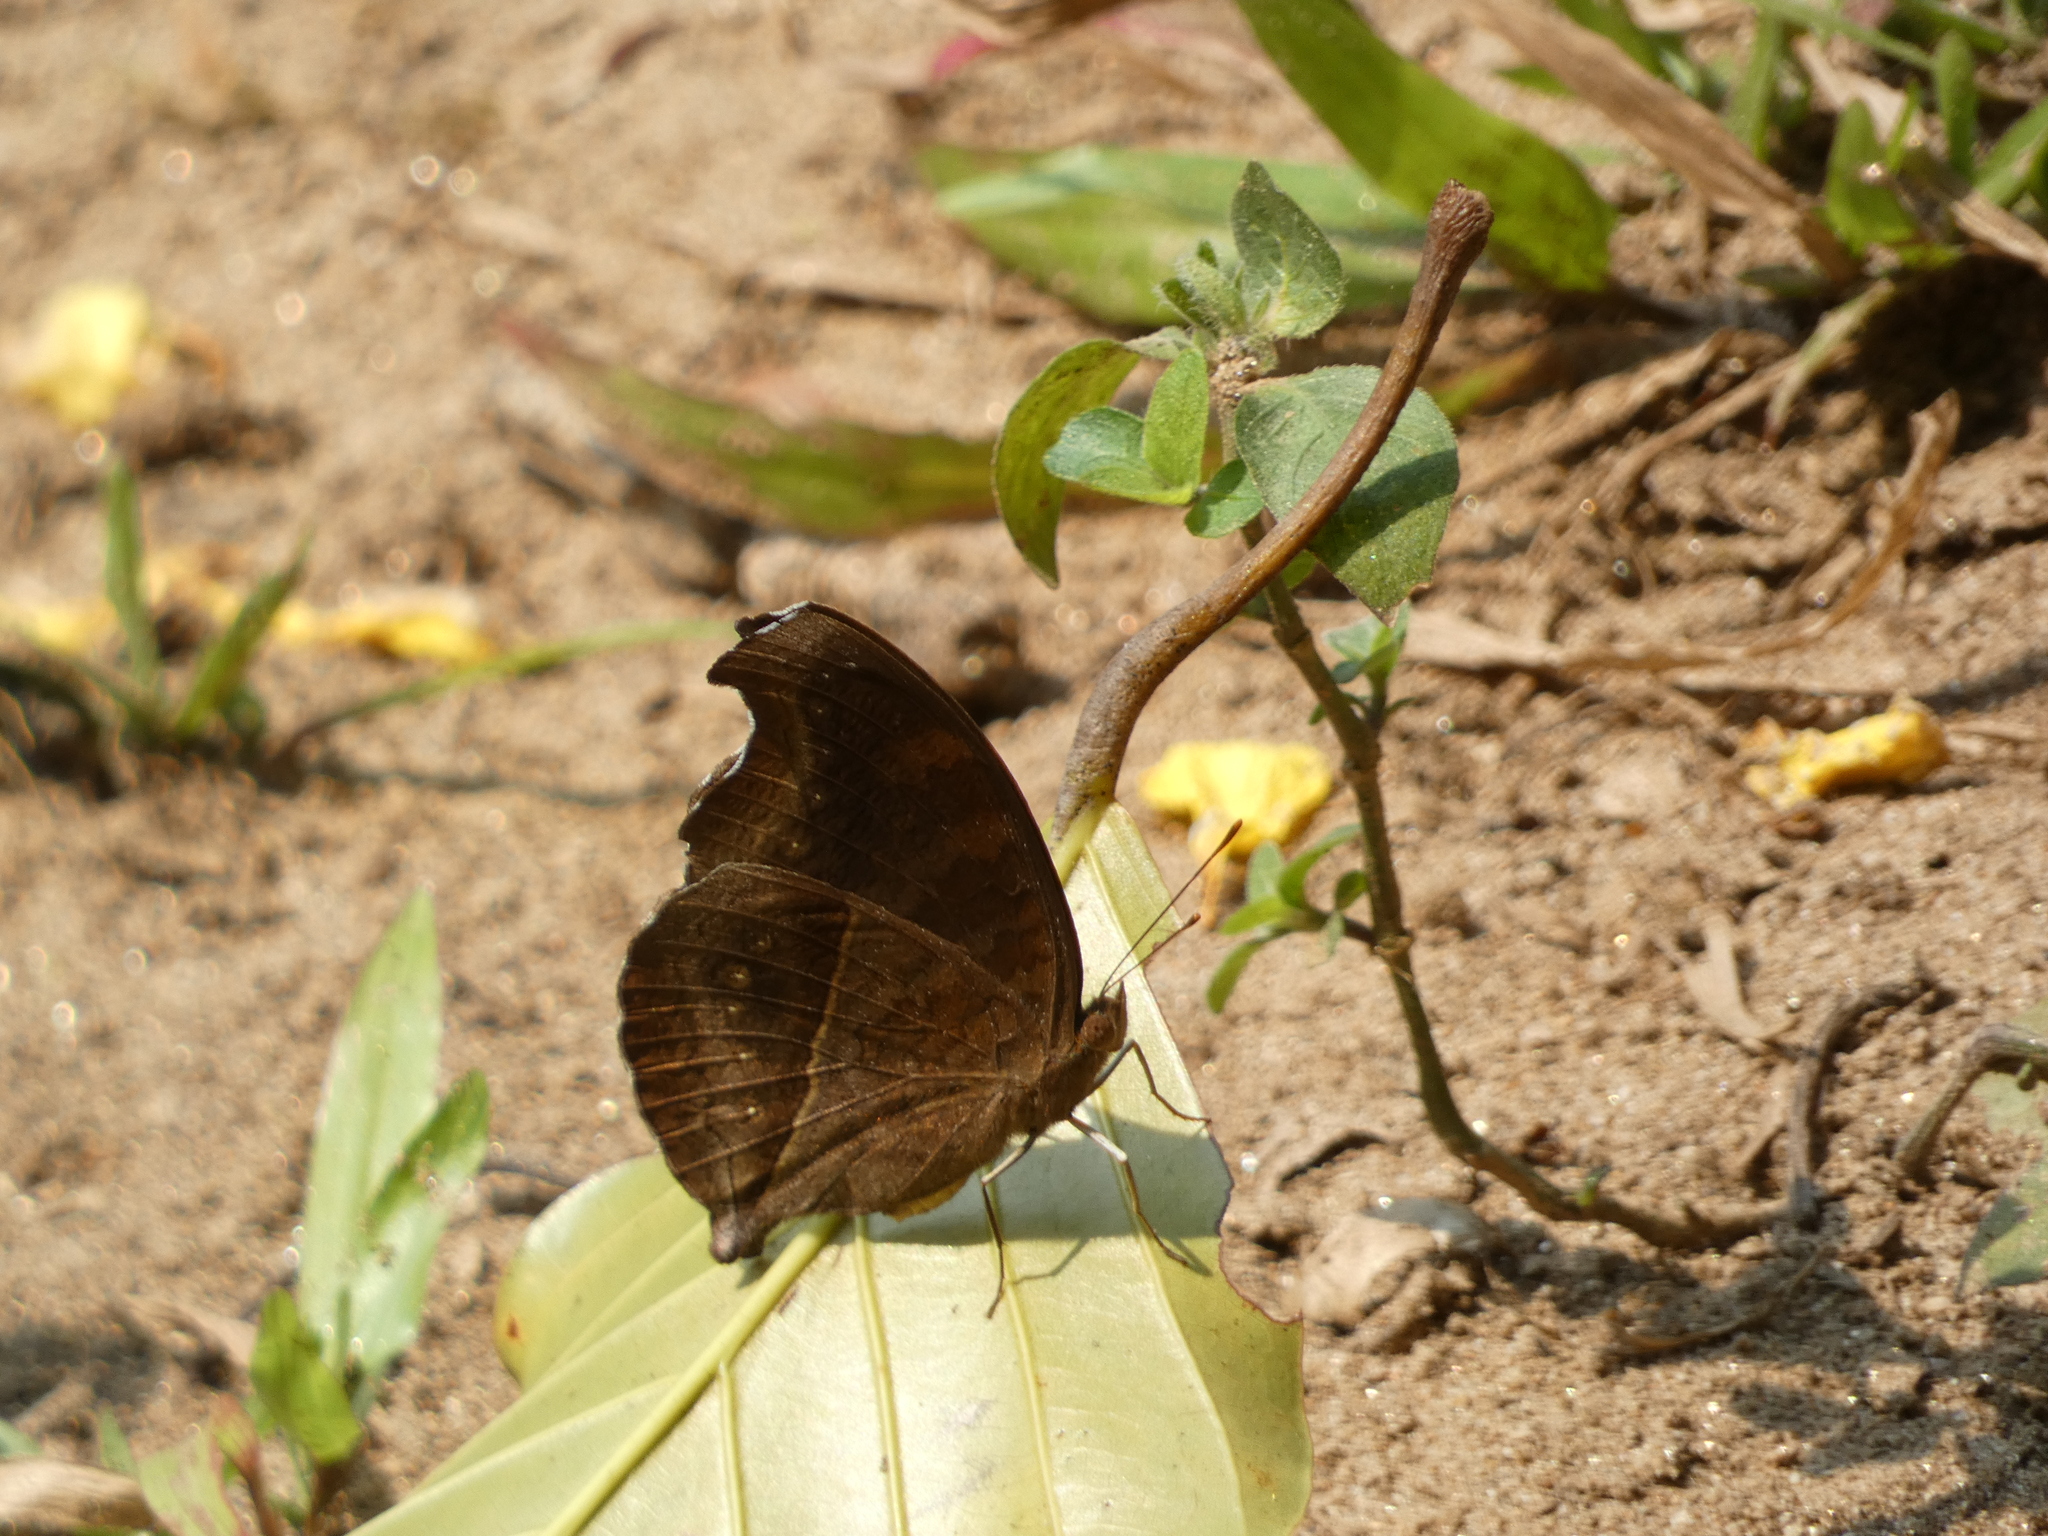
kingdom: Animalia
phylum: Arthropoda
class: Insecta
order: Lepidoptera
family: Nymphalidae
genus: Junonia
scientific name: Junonia iphita
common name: Chocolate pansy
